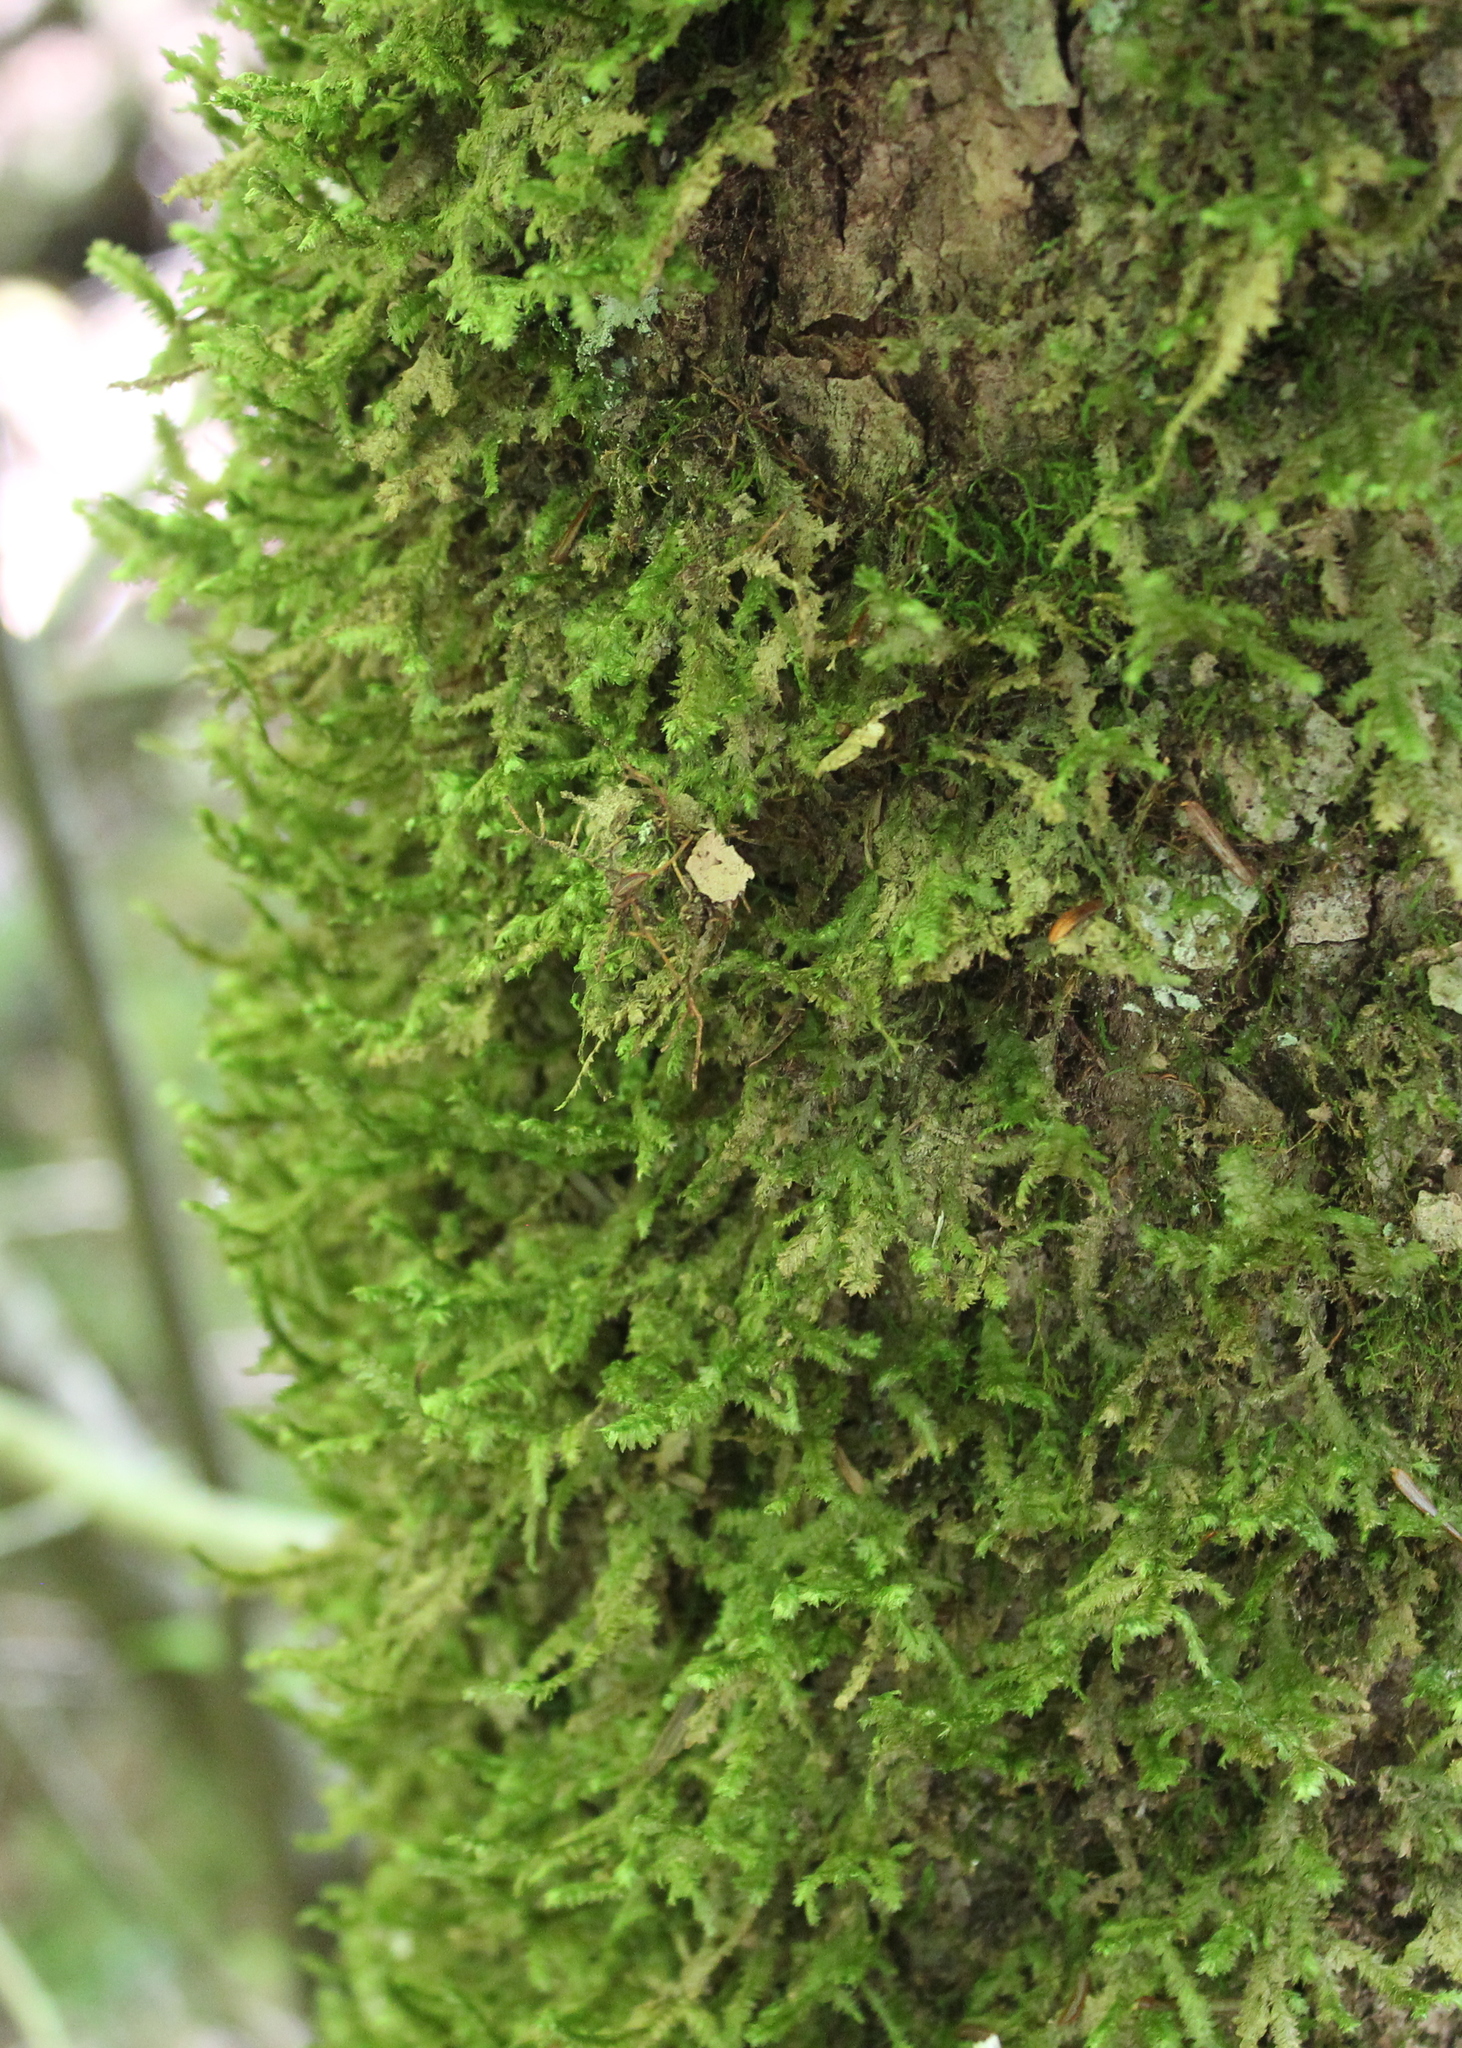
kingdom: Plantae
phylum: Bryophyta
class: Bryopsida
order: Hypnales
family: Neckeraceae
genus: Neckera
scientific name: Neckera pennata
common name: Feathery neckera
